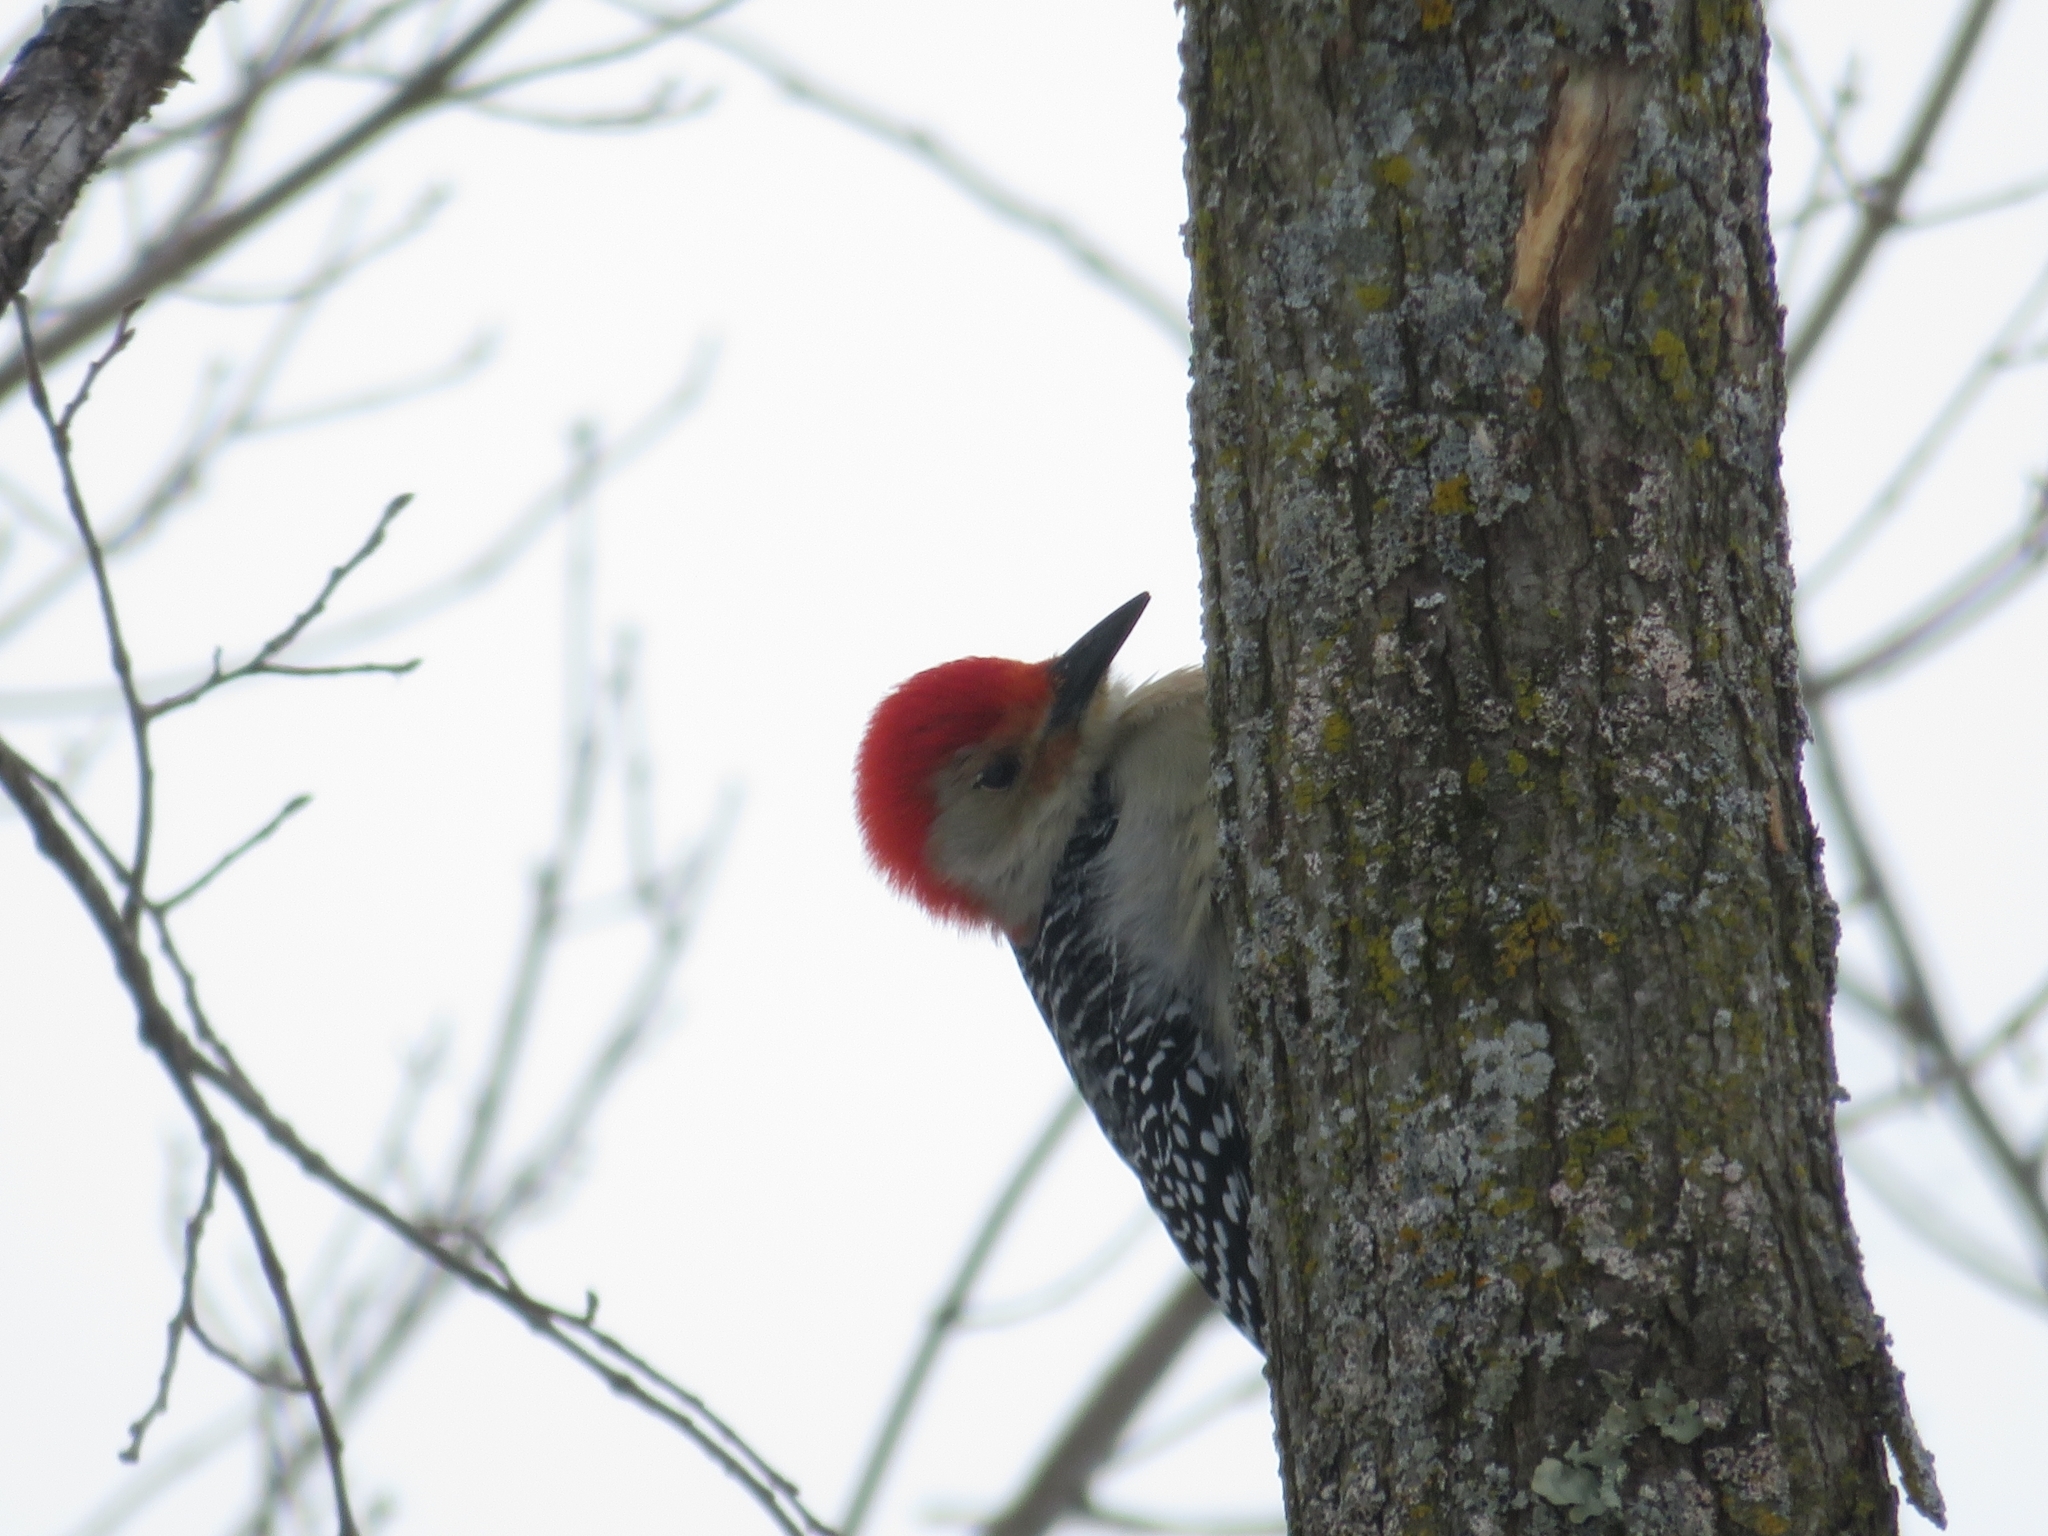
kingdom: Animalia
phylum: Chordata
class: Aves
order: Piciformes
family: Picidae
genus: Melanerpes
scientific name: Melanerpes carolinus
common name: Red-bellied woodpecker
